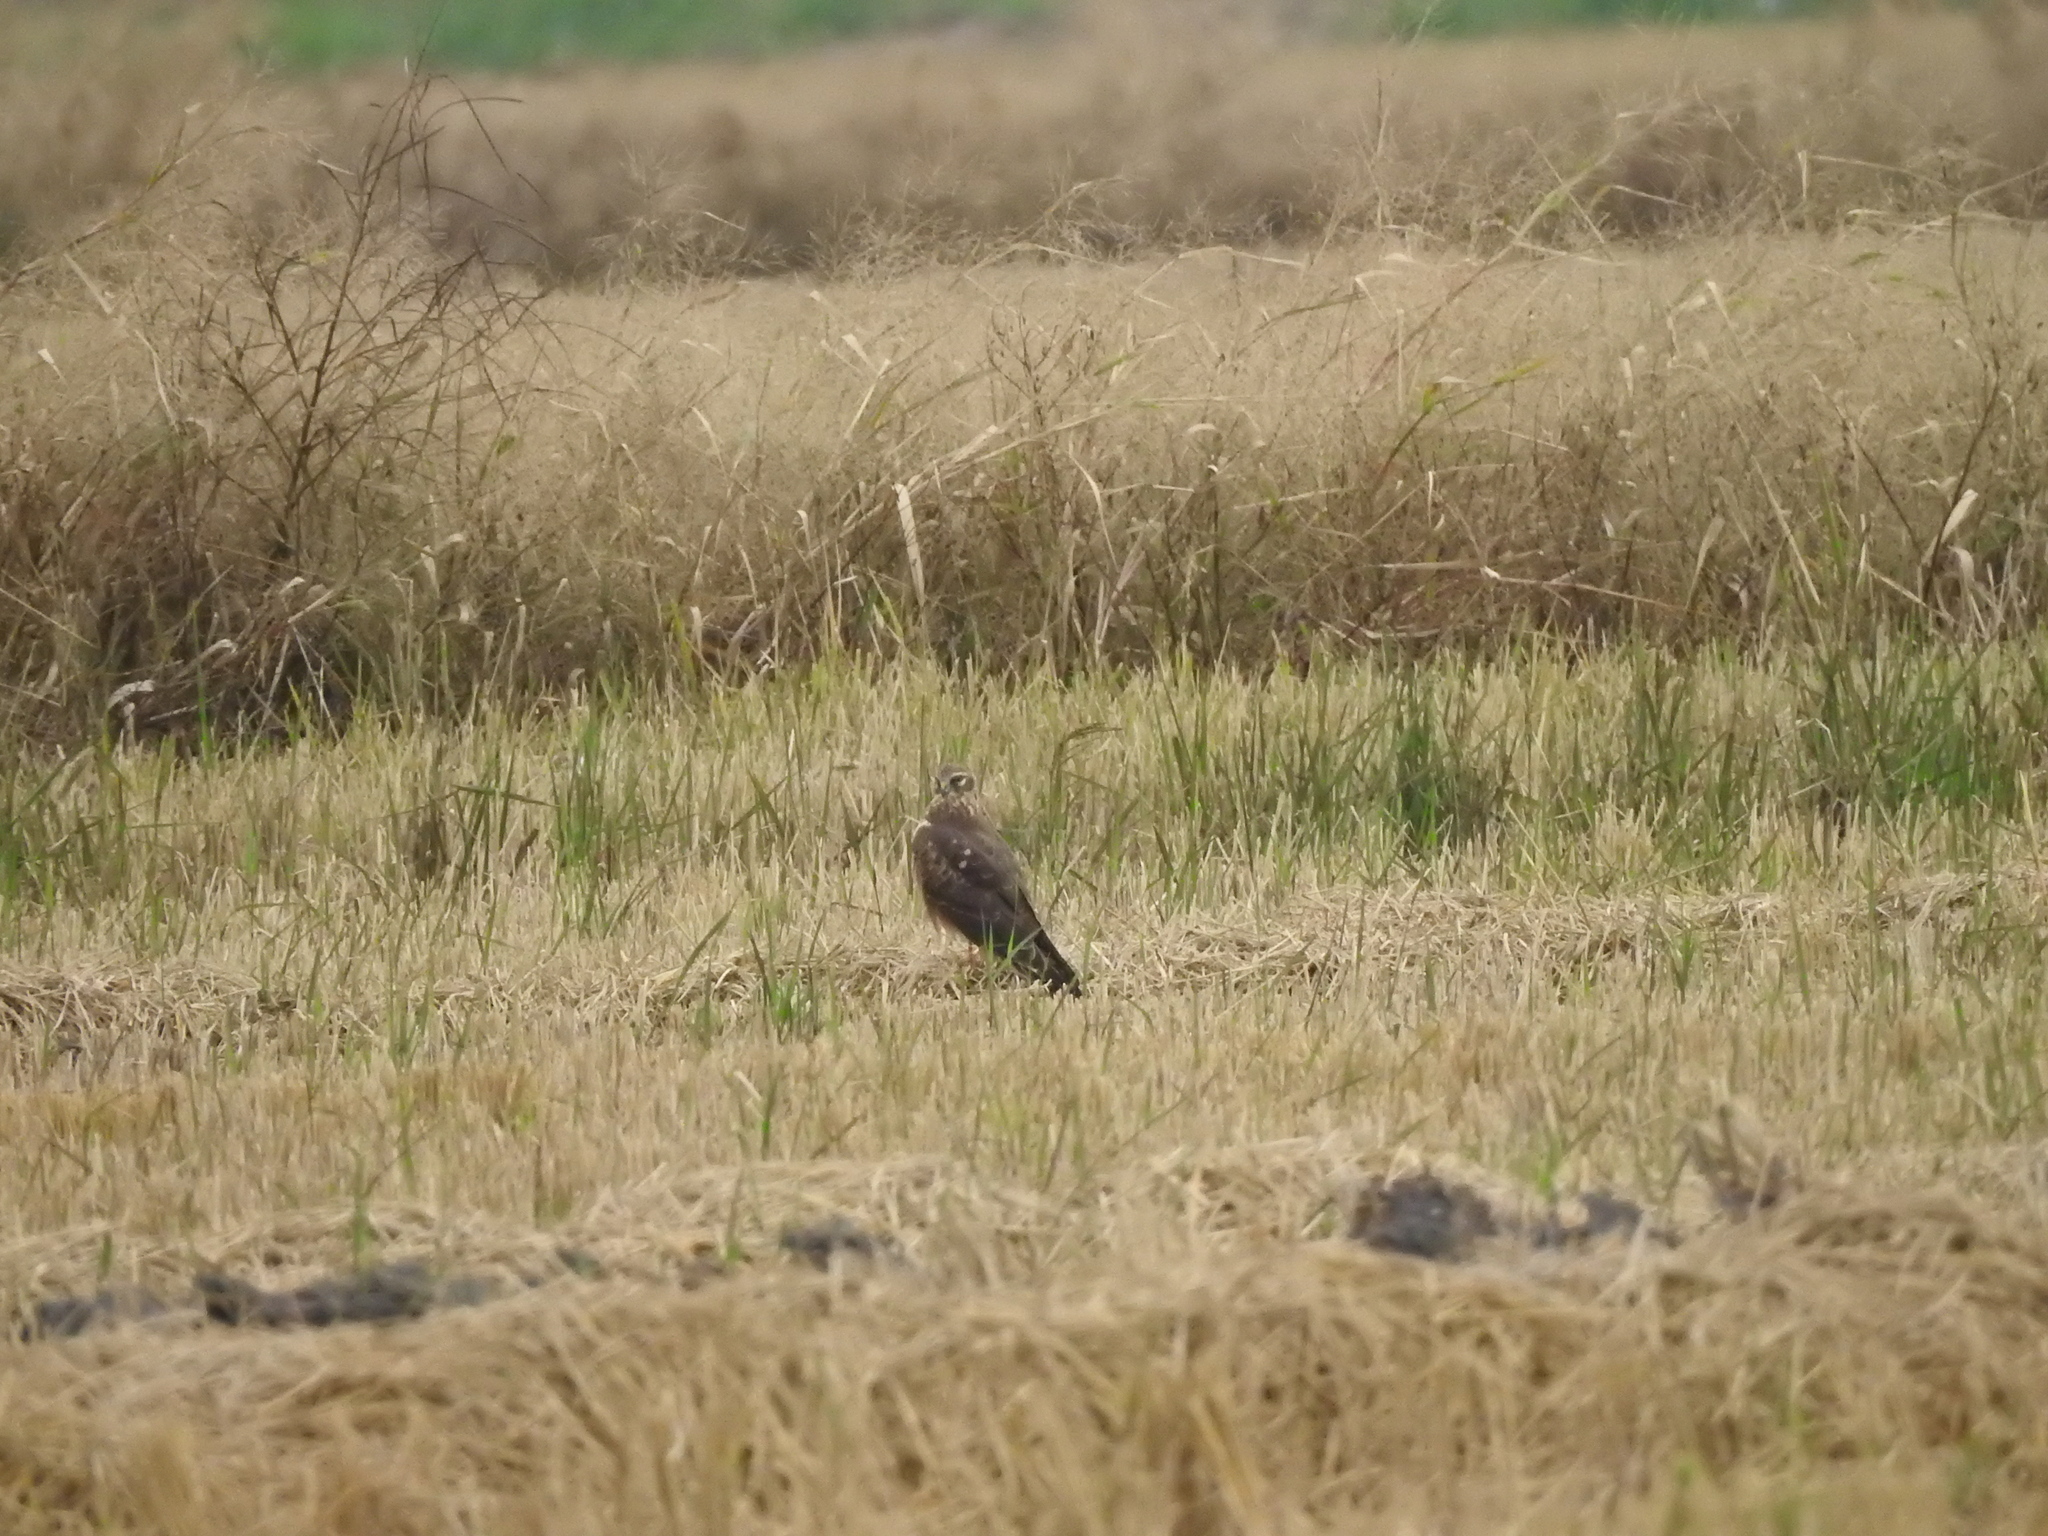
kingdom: Animalia
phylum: Chordata
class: Aves
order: Accipitriformes
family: Accipitridae
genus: Circus
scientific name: Circus cyaneus
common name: Hen harrier
